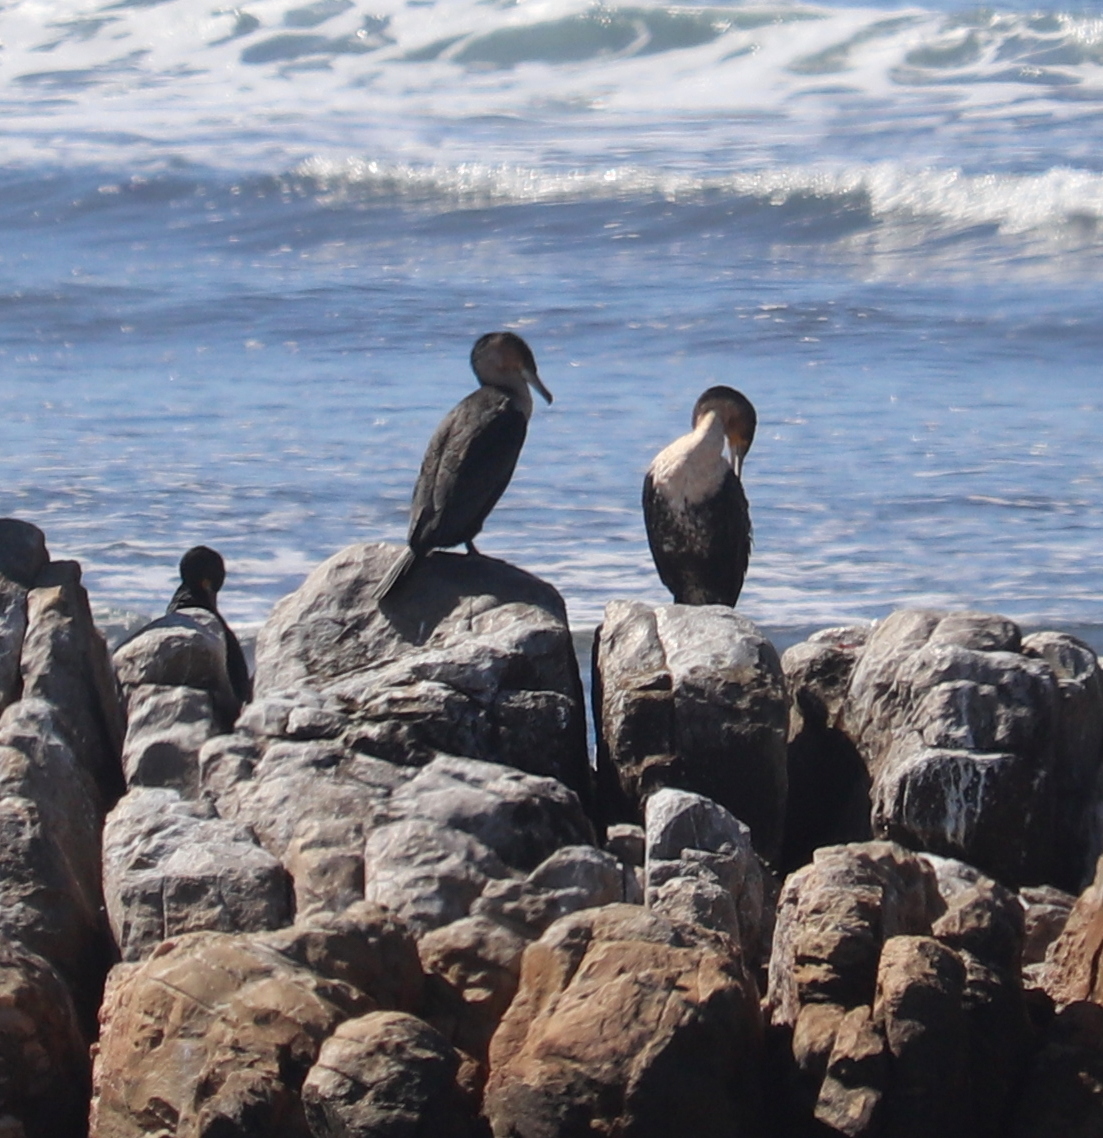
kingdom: Animalia
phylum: Chordata
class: Aves
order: Suliformes
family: Phalacrocoracidae
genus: Phalacrocorax
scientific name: Phalacrocorax carbo
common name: Great cormorant
